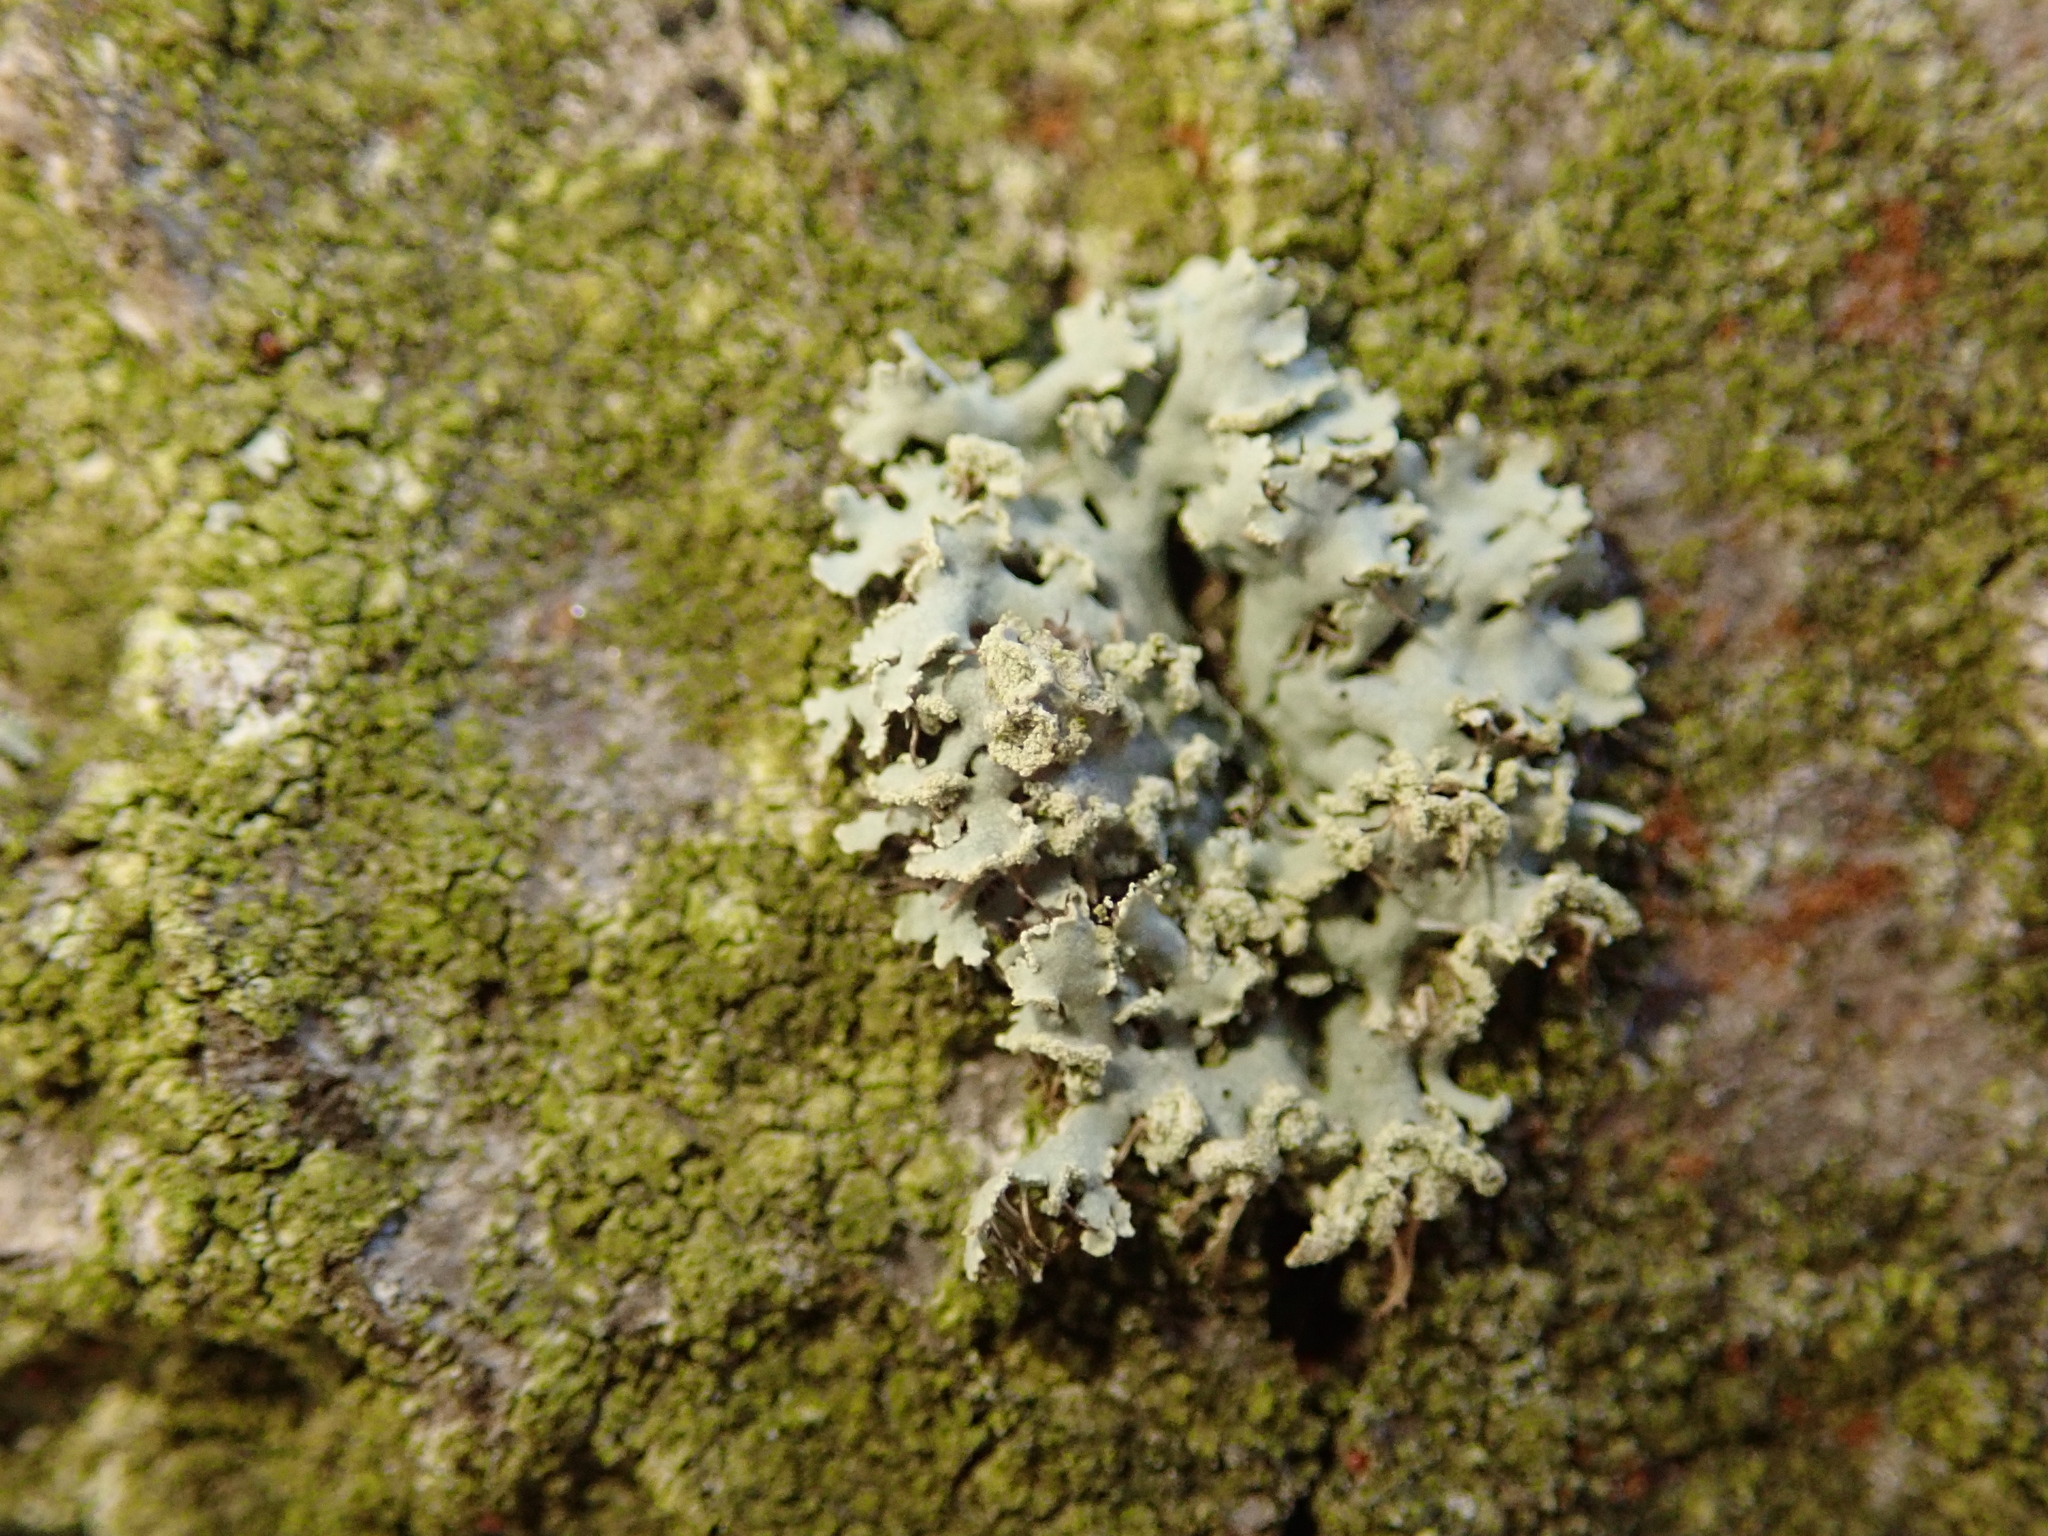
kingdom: Fungi
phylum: Ascomycota
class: Lecanoromycetes
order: Caliciales
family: Physciaceae
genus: Physcia
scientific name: Physcia tenella
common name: Fringed rosette lichen
